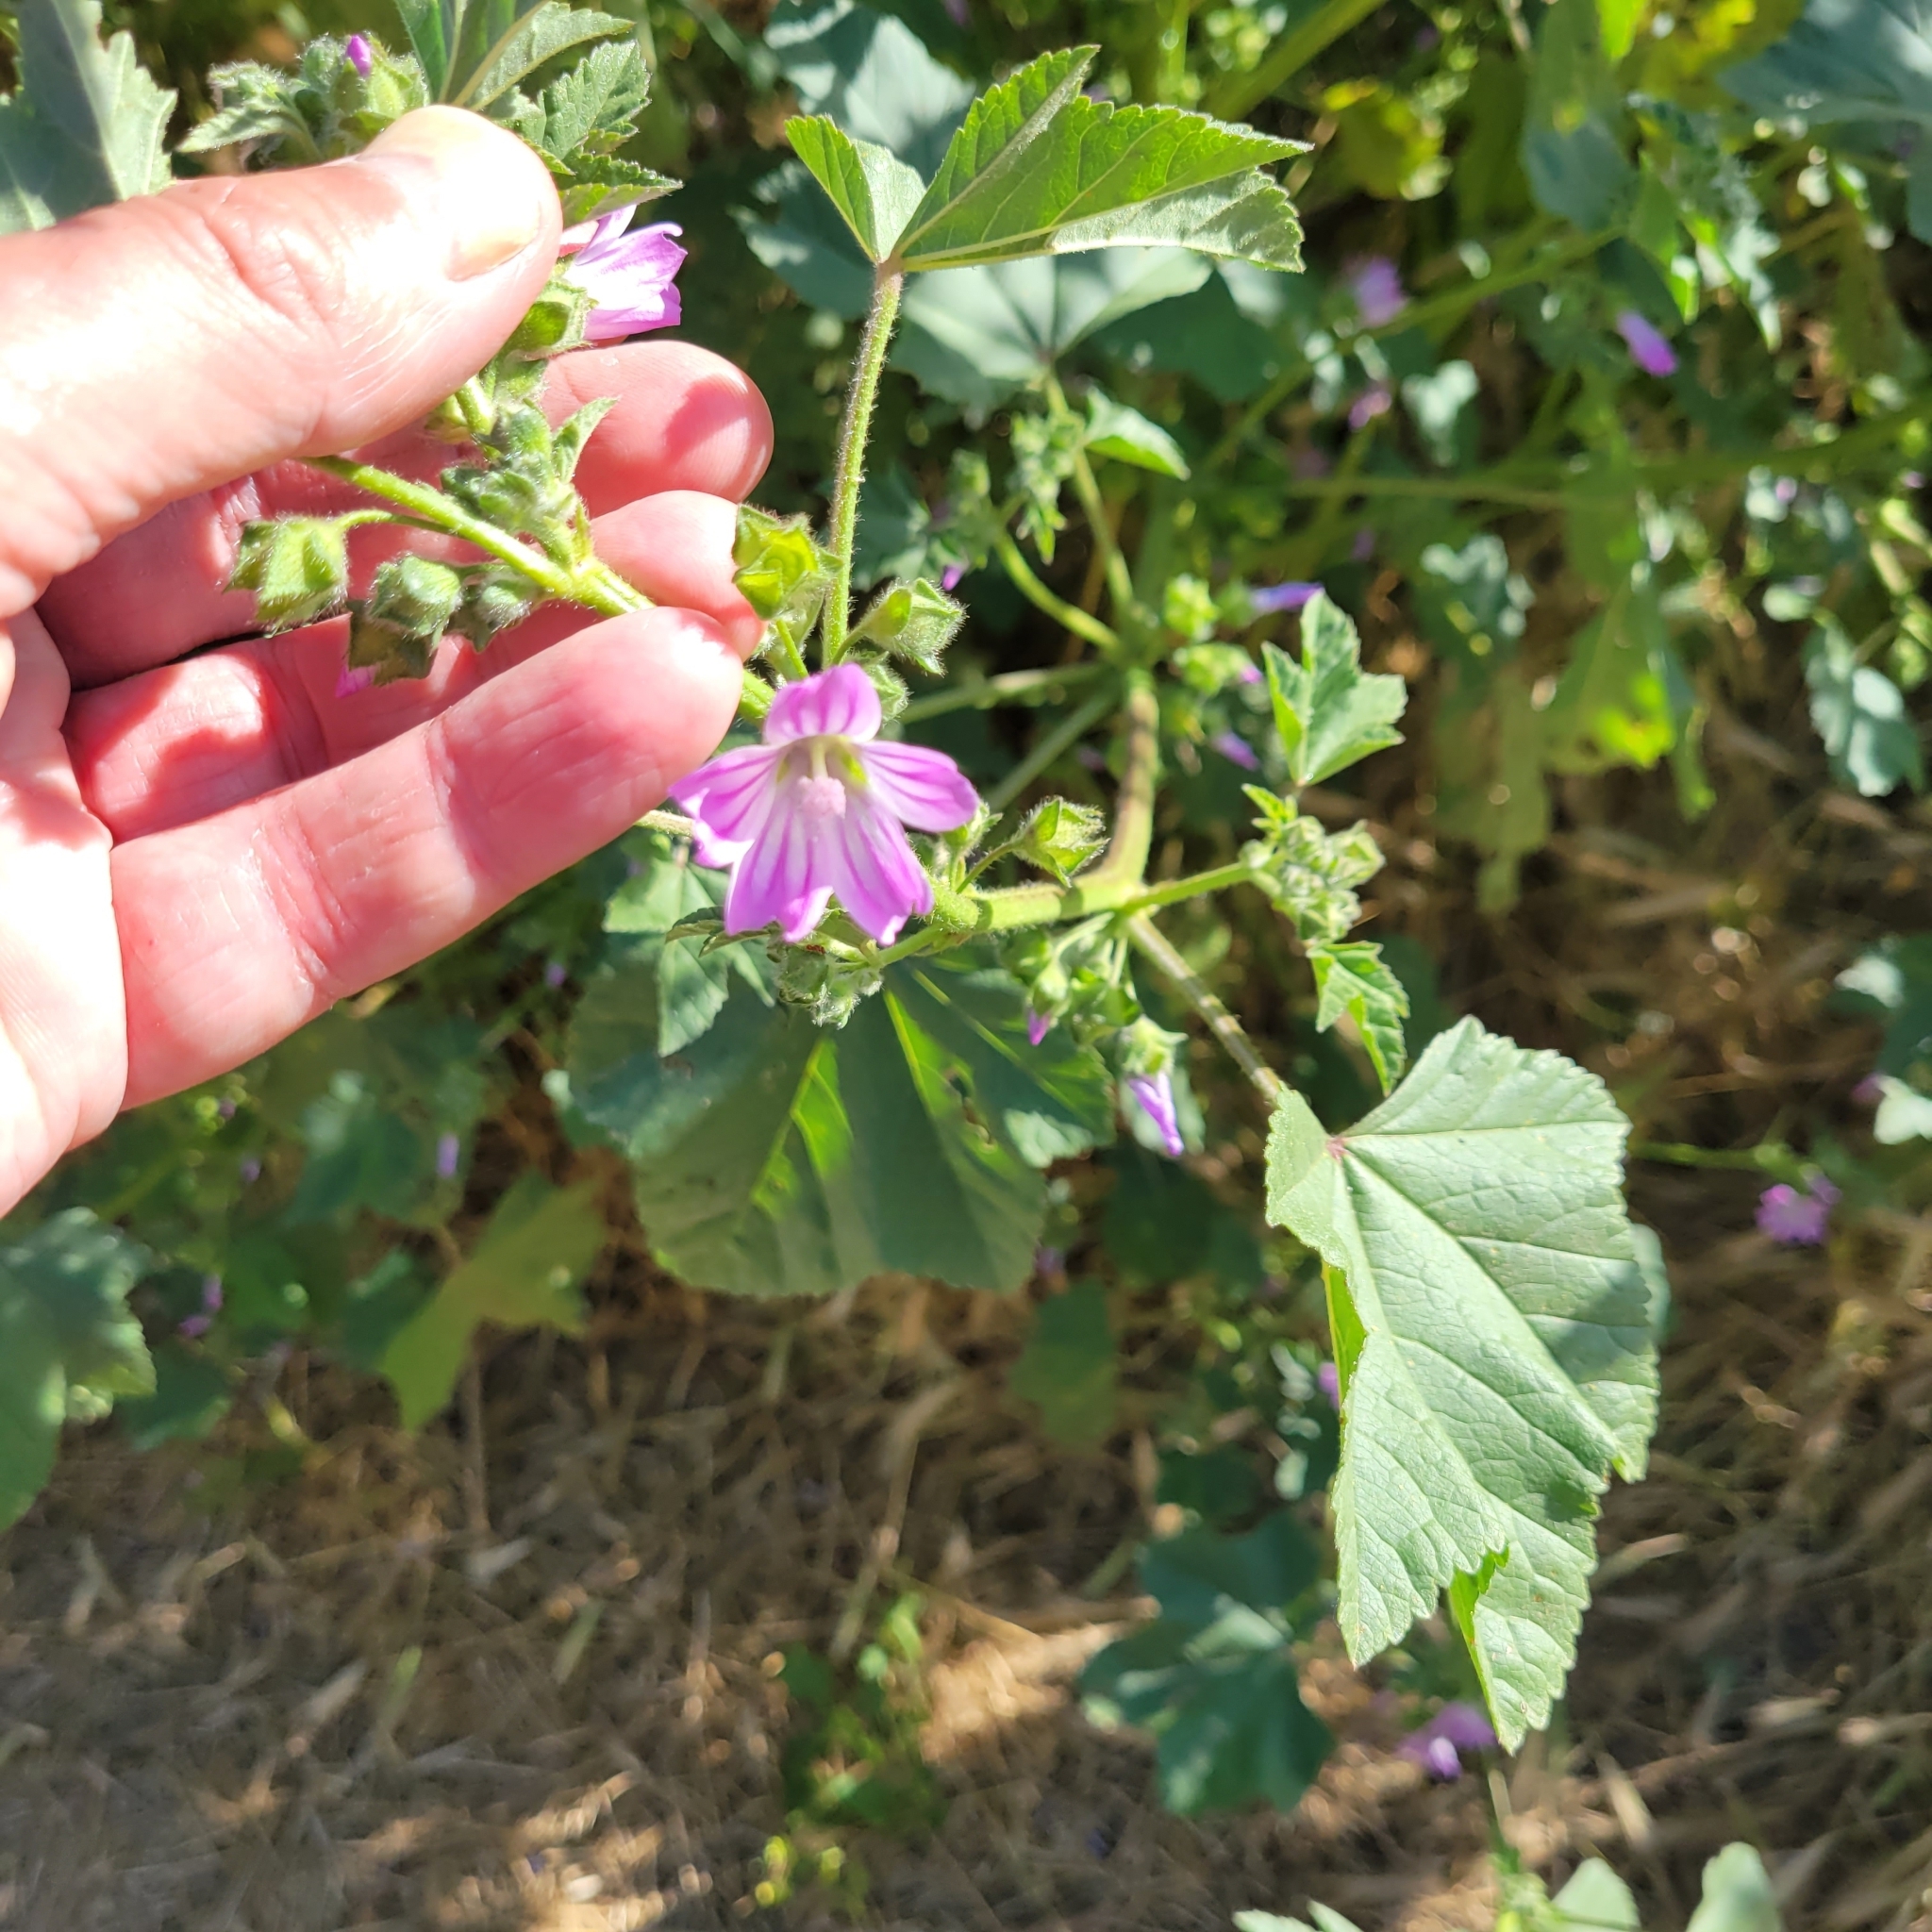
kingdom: Plantae
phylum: Tracheophyta
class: Magnoliopsida
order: Malvales
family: Malvaceae
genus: Malva
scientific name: Malva multiflora
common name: Cheeseweed
